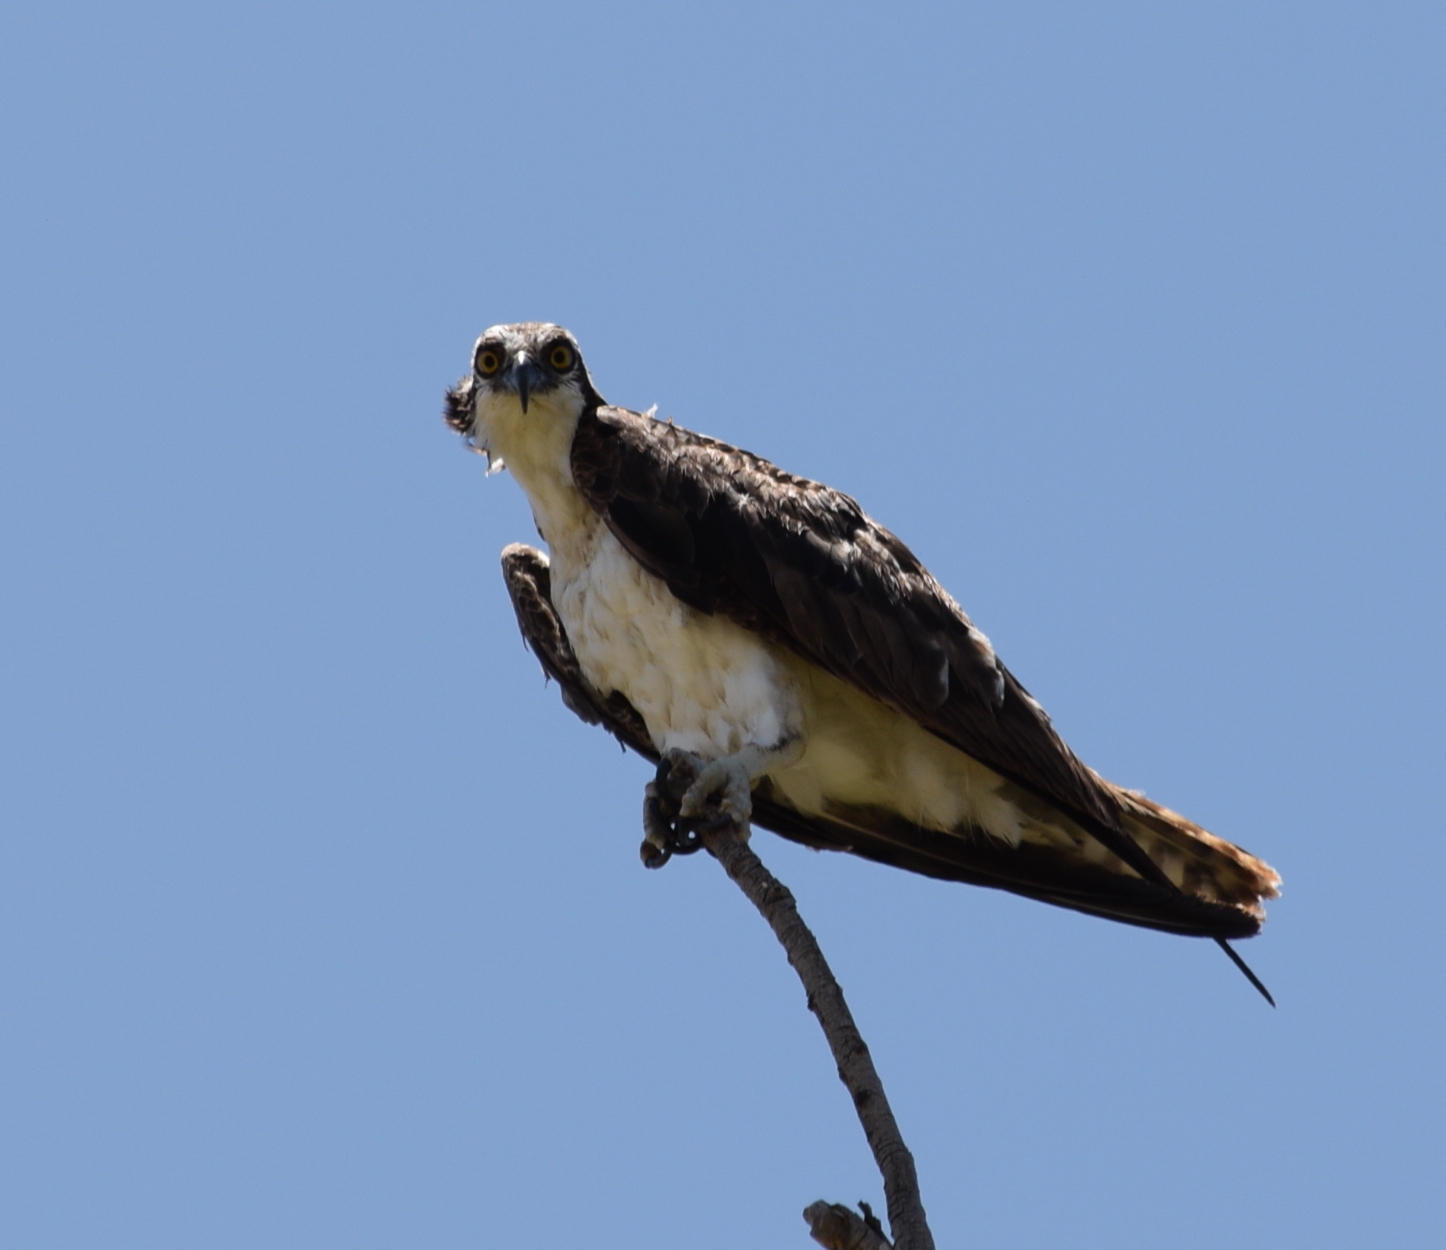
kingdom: Animalia
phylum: Chordata
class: Aves
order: Accipitriformes
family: Pandionidae
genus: Pandion
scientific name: Pandion haliaetus
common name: Osprey
